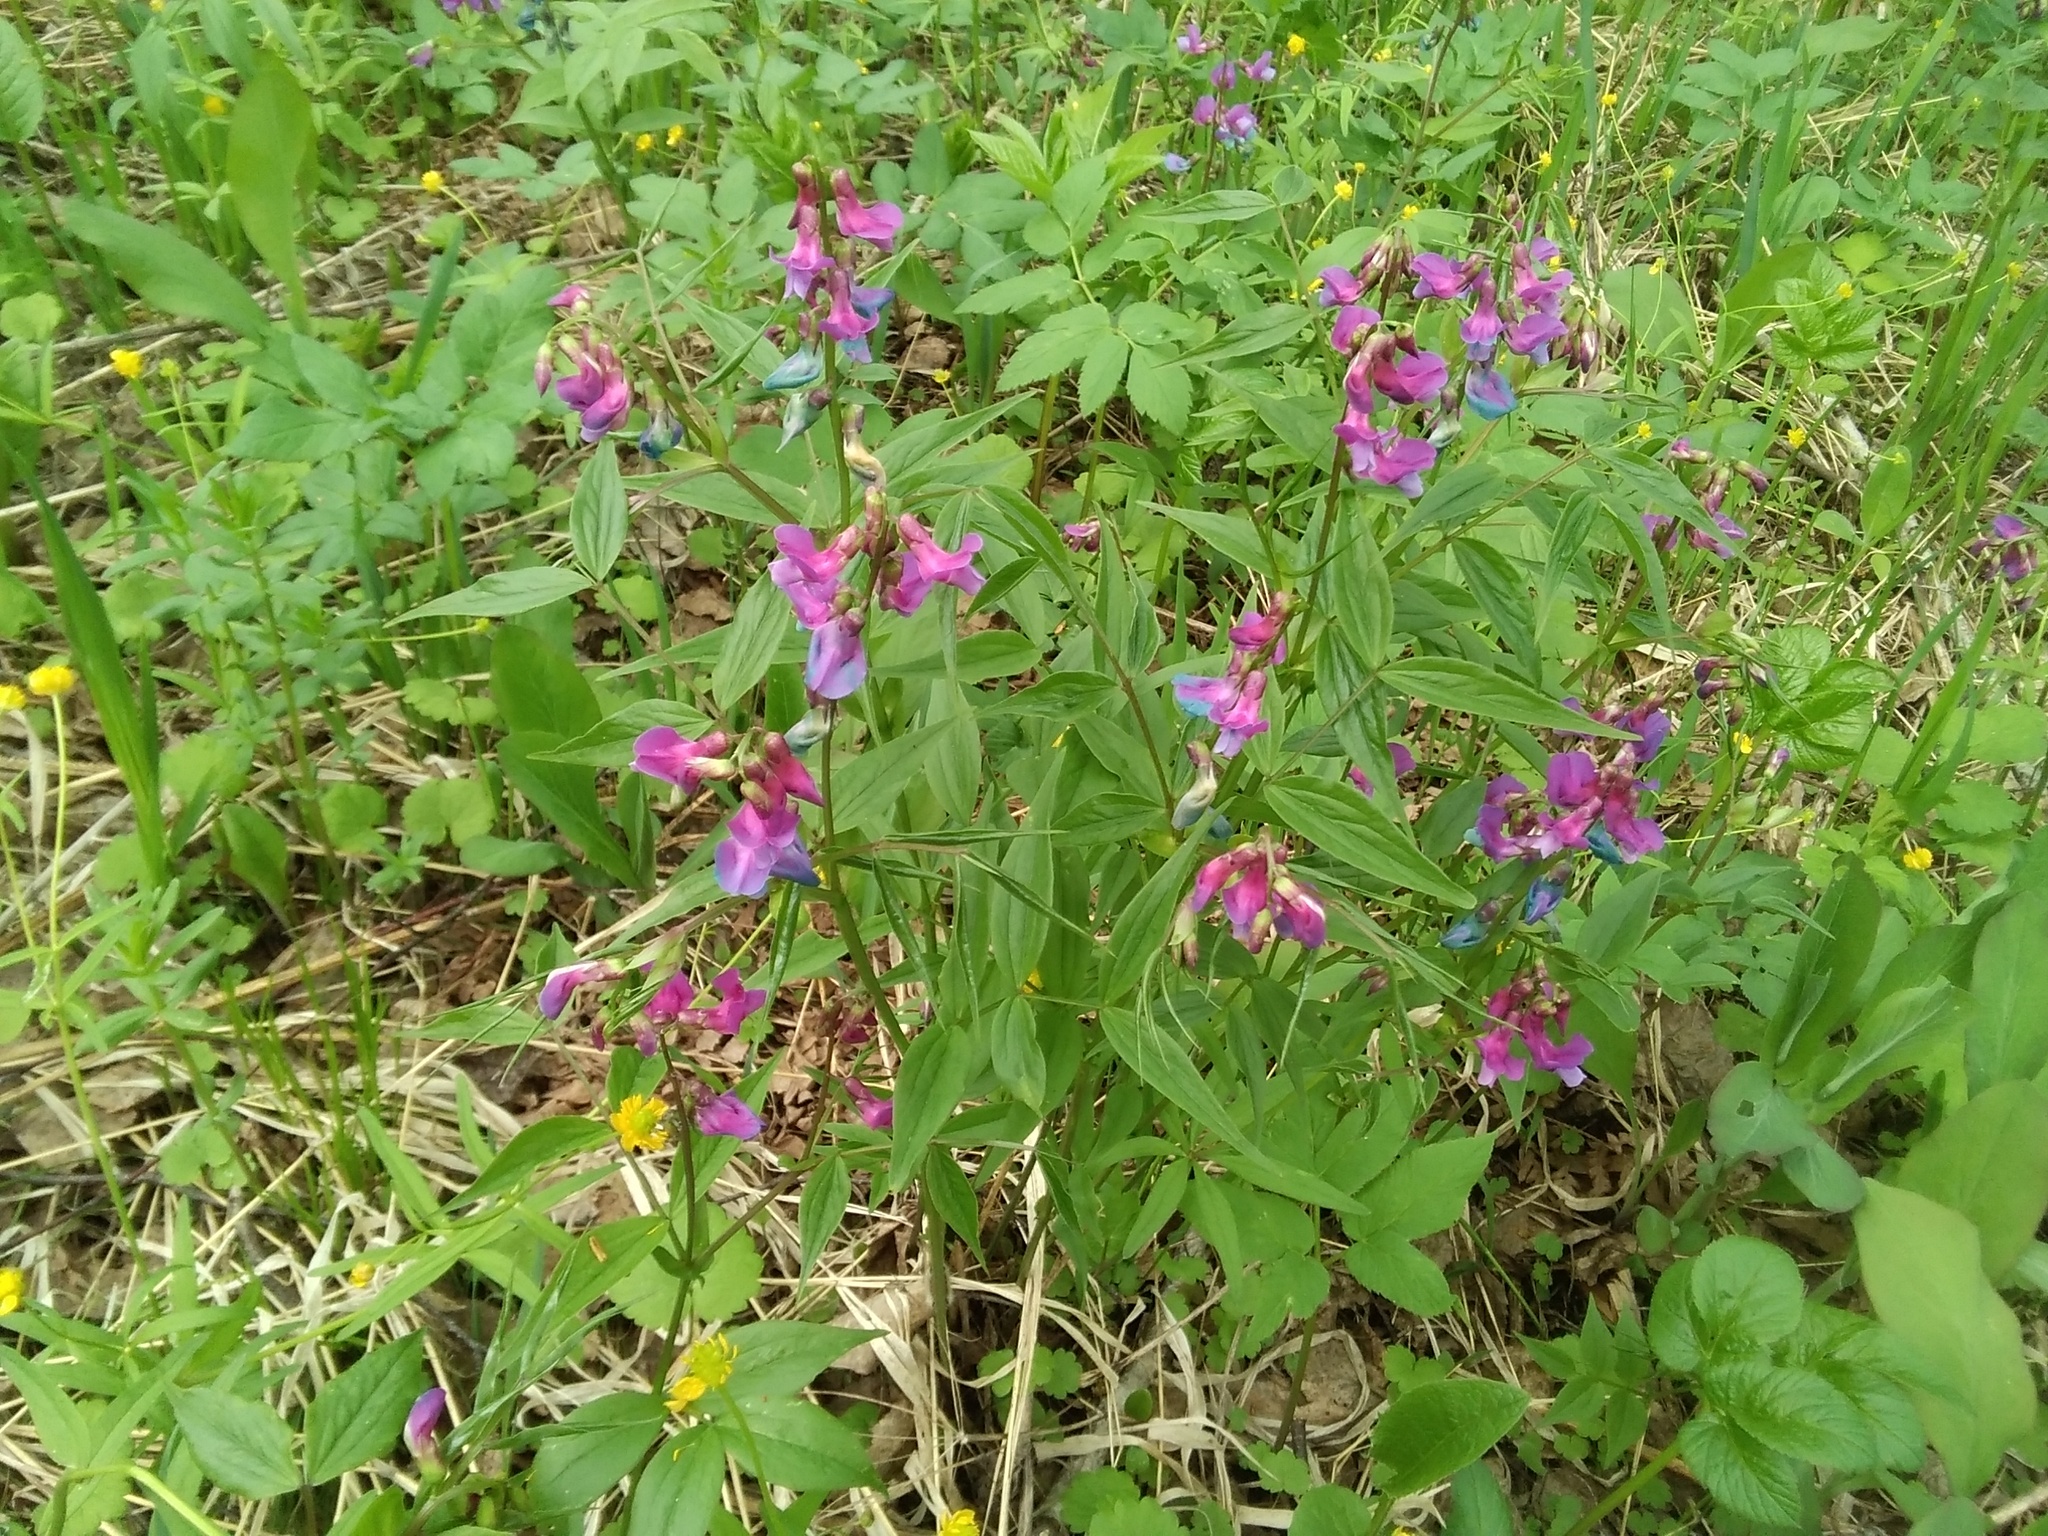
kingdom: Plantae
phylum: Tracheophyta
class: Magnoliopsida
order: Fabales
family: Fabaceae
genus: Lathyrus
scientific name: Lathyrus vernus
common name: Spring pea
